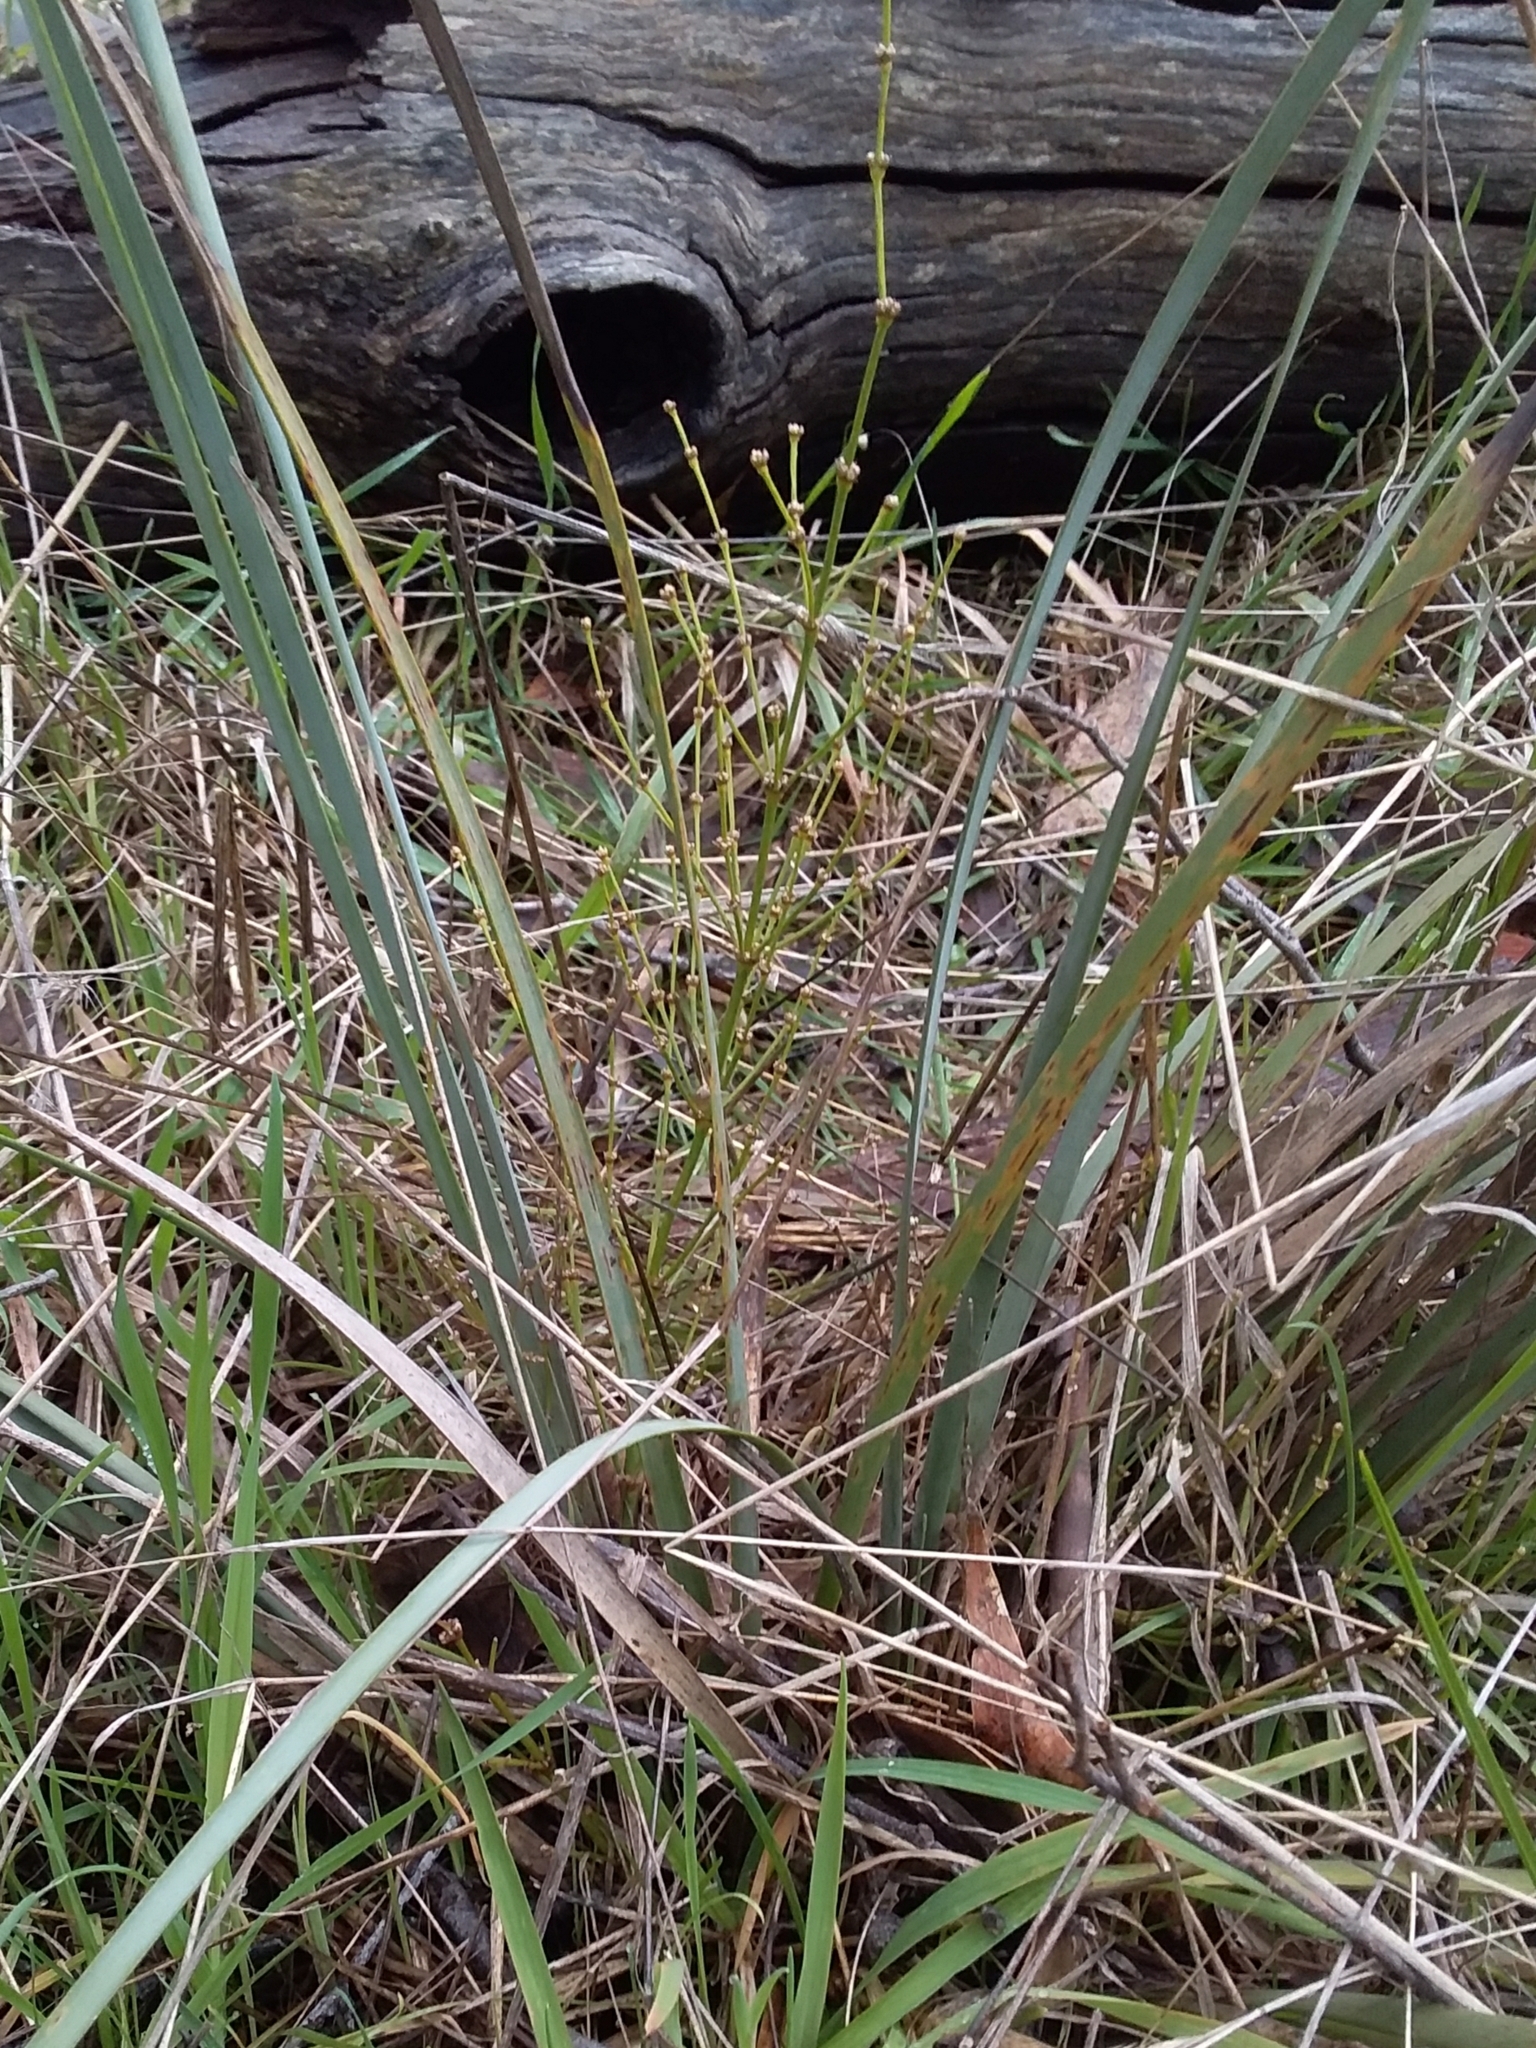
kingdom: Plantae
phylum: Tracheophyta
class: Liliopsida
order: Asparagales
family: Asparagaceae
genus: Lomandra
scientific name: Lomandra multiflora
